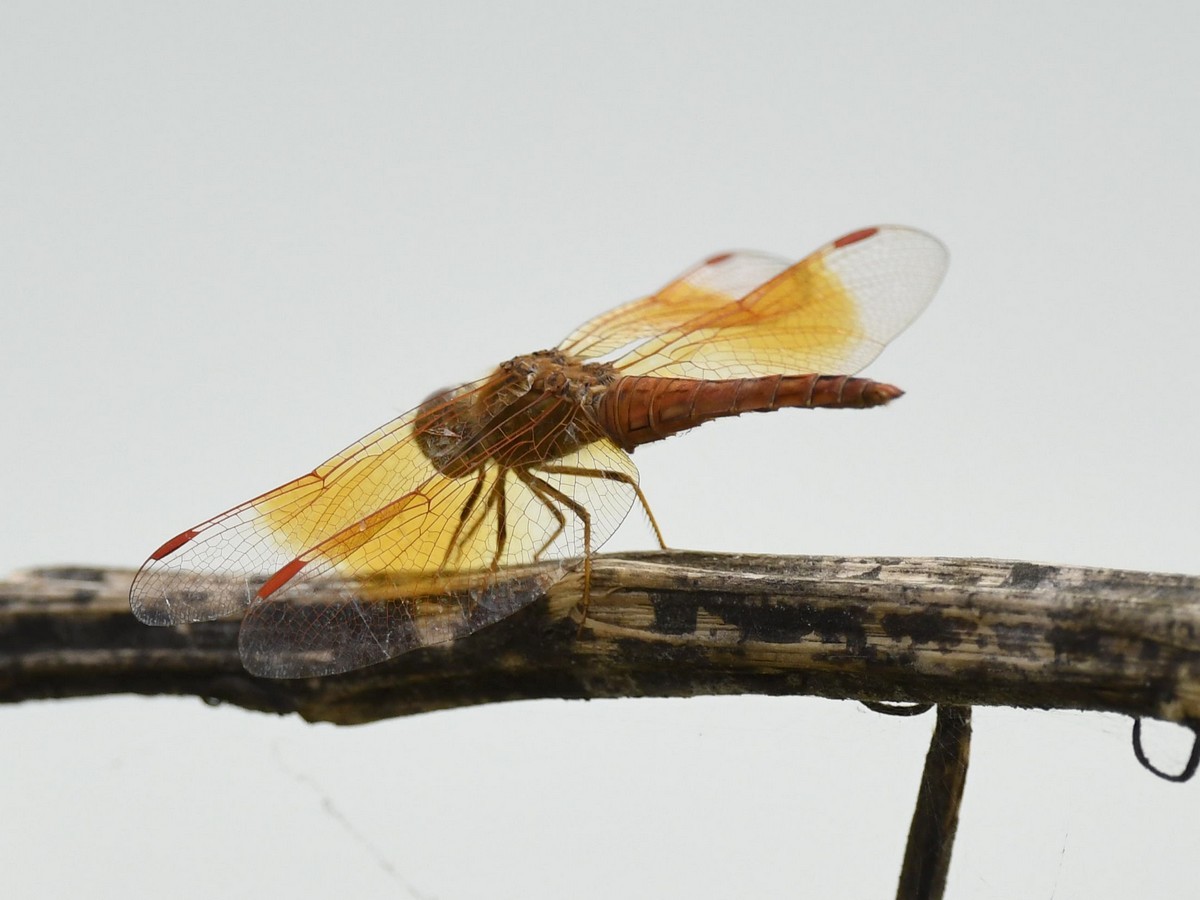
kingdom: Animalia
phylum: Arthropoda
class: Insecta
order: Odonata
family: Libellulidae
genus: Brachythemis
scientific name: Brachythemis contaminata
